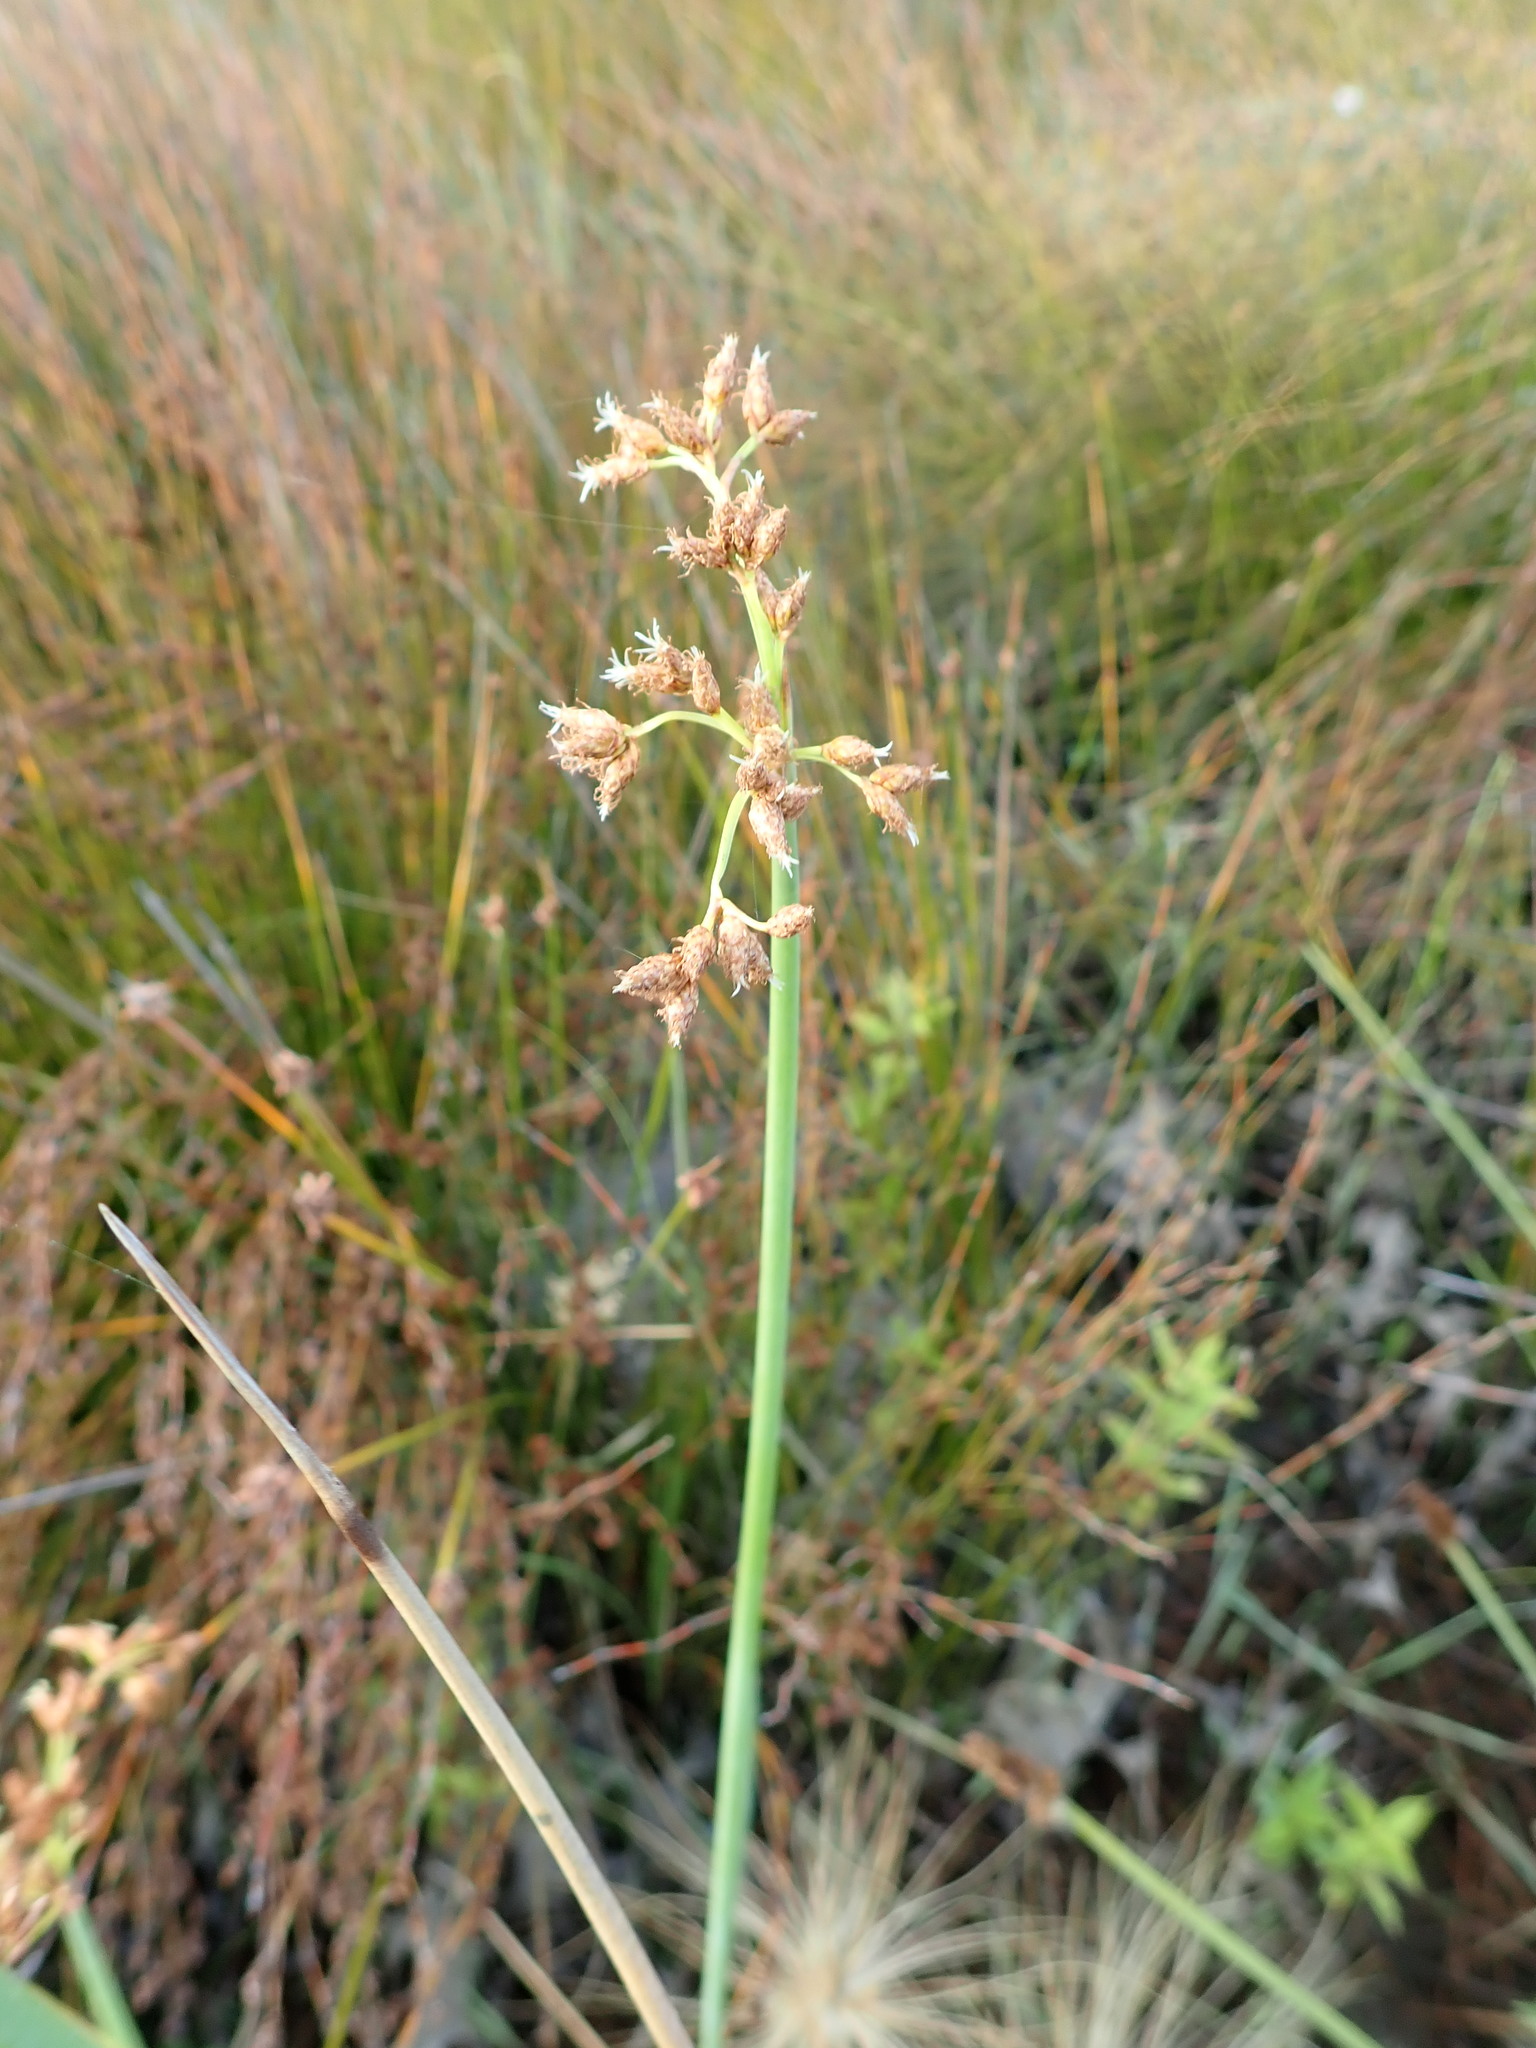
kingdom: Plantae
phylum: Tracheophyta
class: Liliopsida
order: Poales
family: Cyperaceae
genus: Schoenoplectus
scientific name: Schoenoplectus tabernaemontani
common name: Grey club-rush
